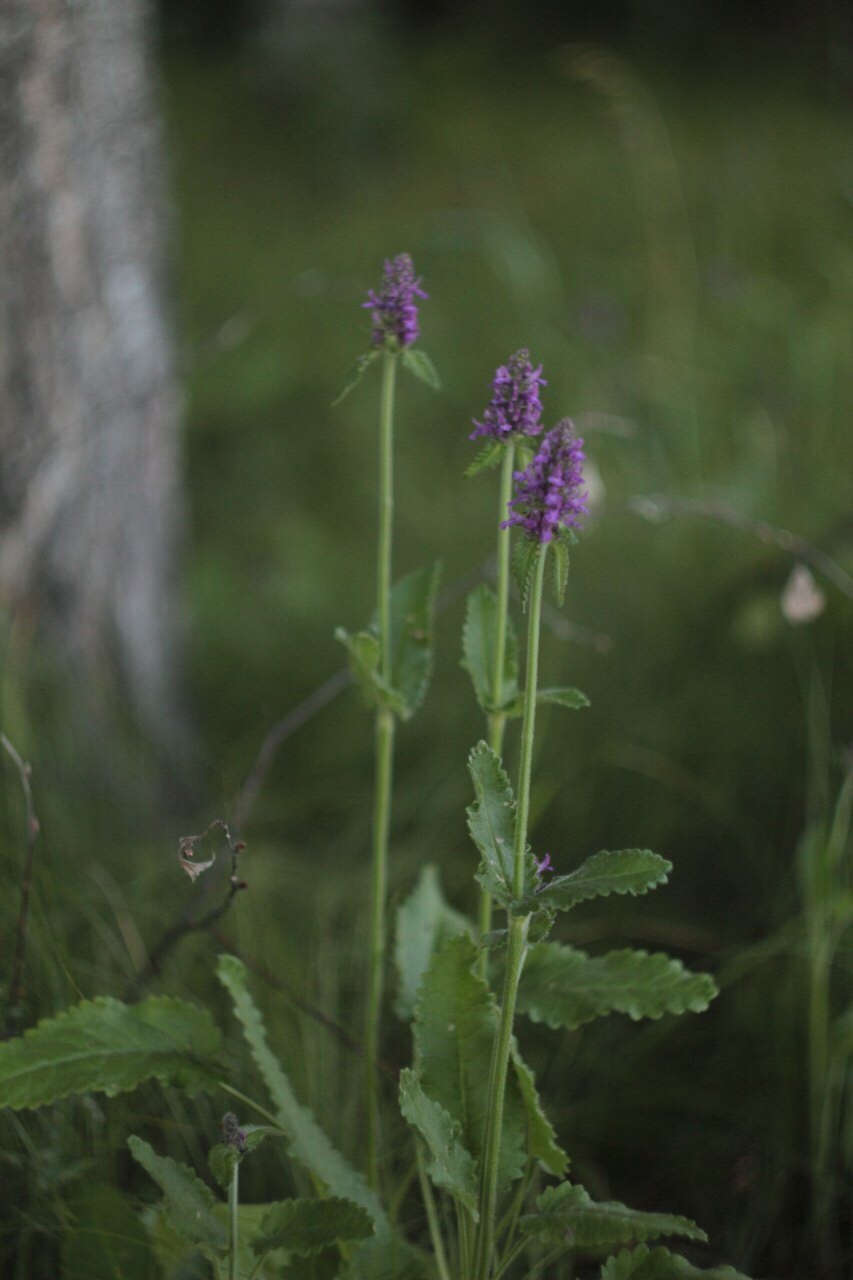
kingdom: Plantae
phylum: Tracheophyta
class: Magnoliopsida
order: Lamiales
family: Lamiaceae
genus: Betonica
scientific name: Betonica officinalis
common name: Bishop's-wort
